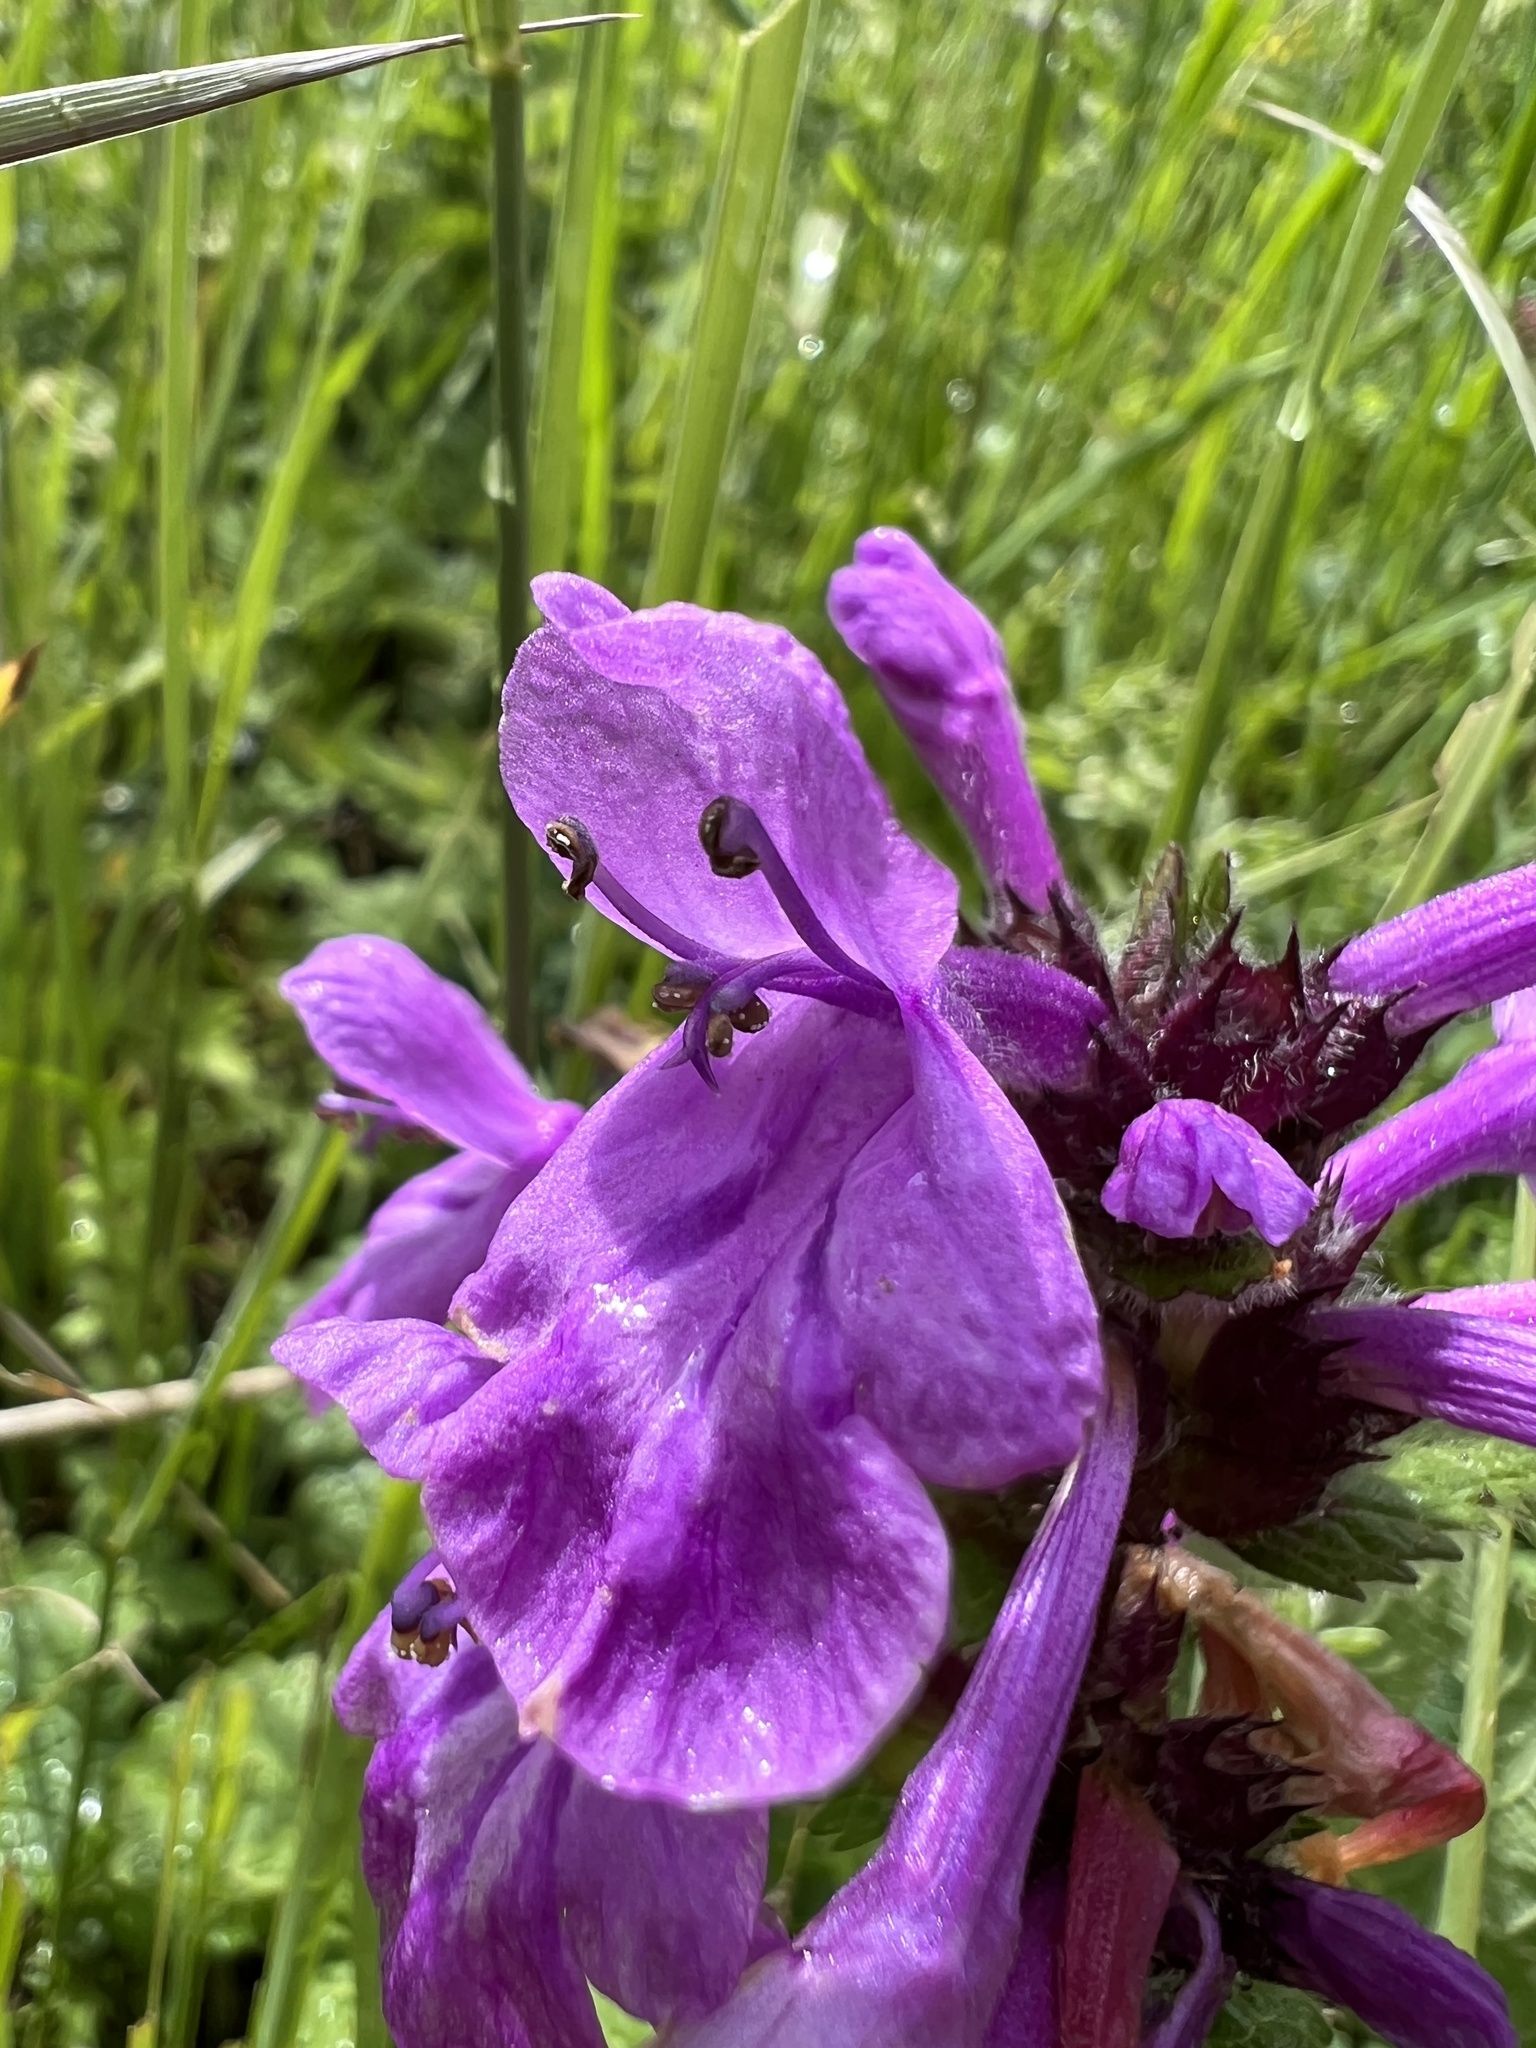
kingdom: Plantae
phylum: Tracheophyta
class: Magnoliopsida
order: Lamiales
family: Lamiaceae
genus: Betonica
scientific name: Betonica macrantha
